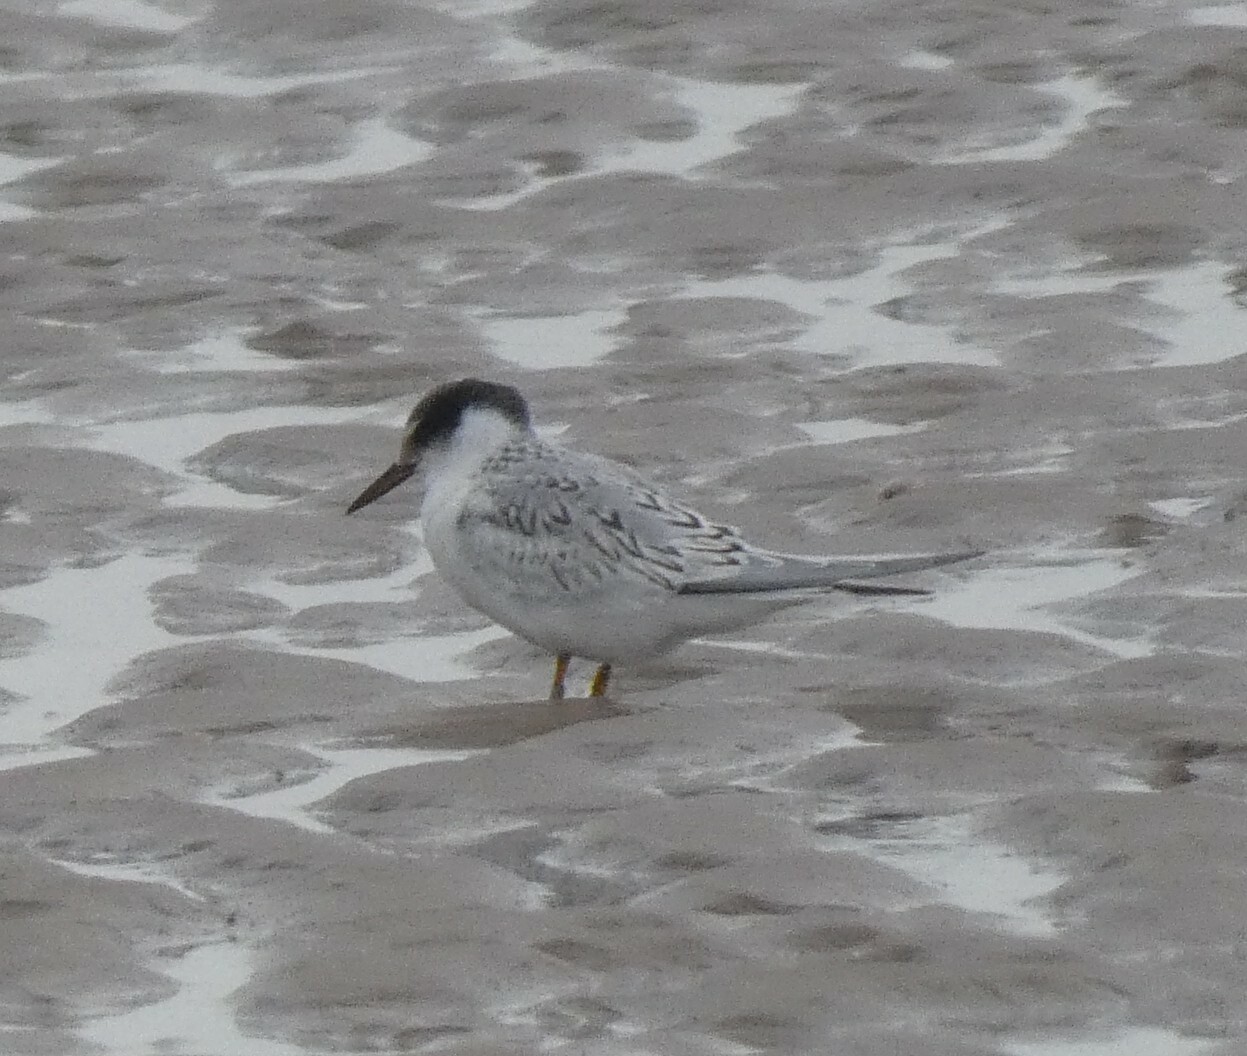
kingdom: Animalia
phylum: Chordata
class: Aves
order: Charadriiformes
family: Laridae
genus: Sternula
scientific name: Sternula albifrons
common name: Little tern
